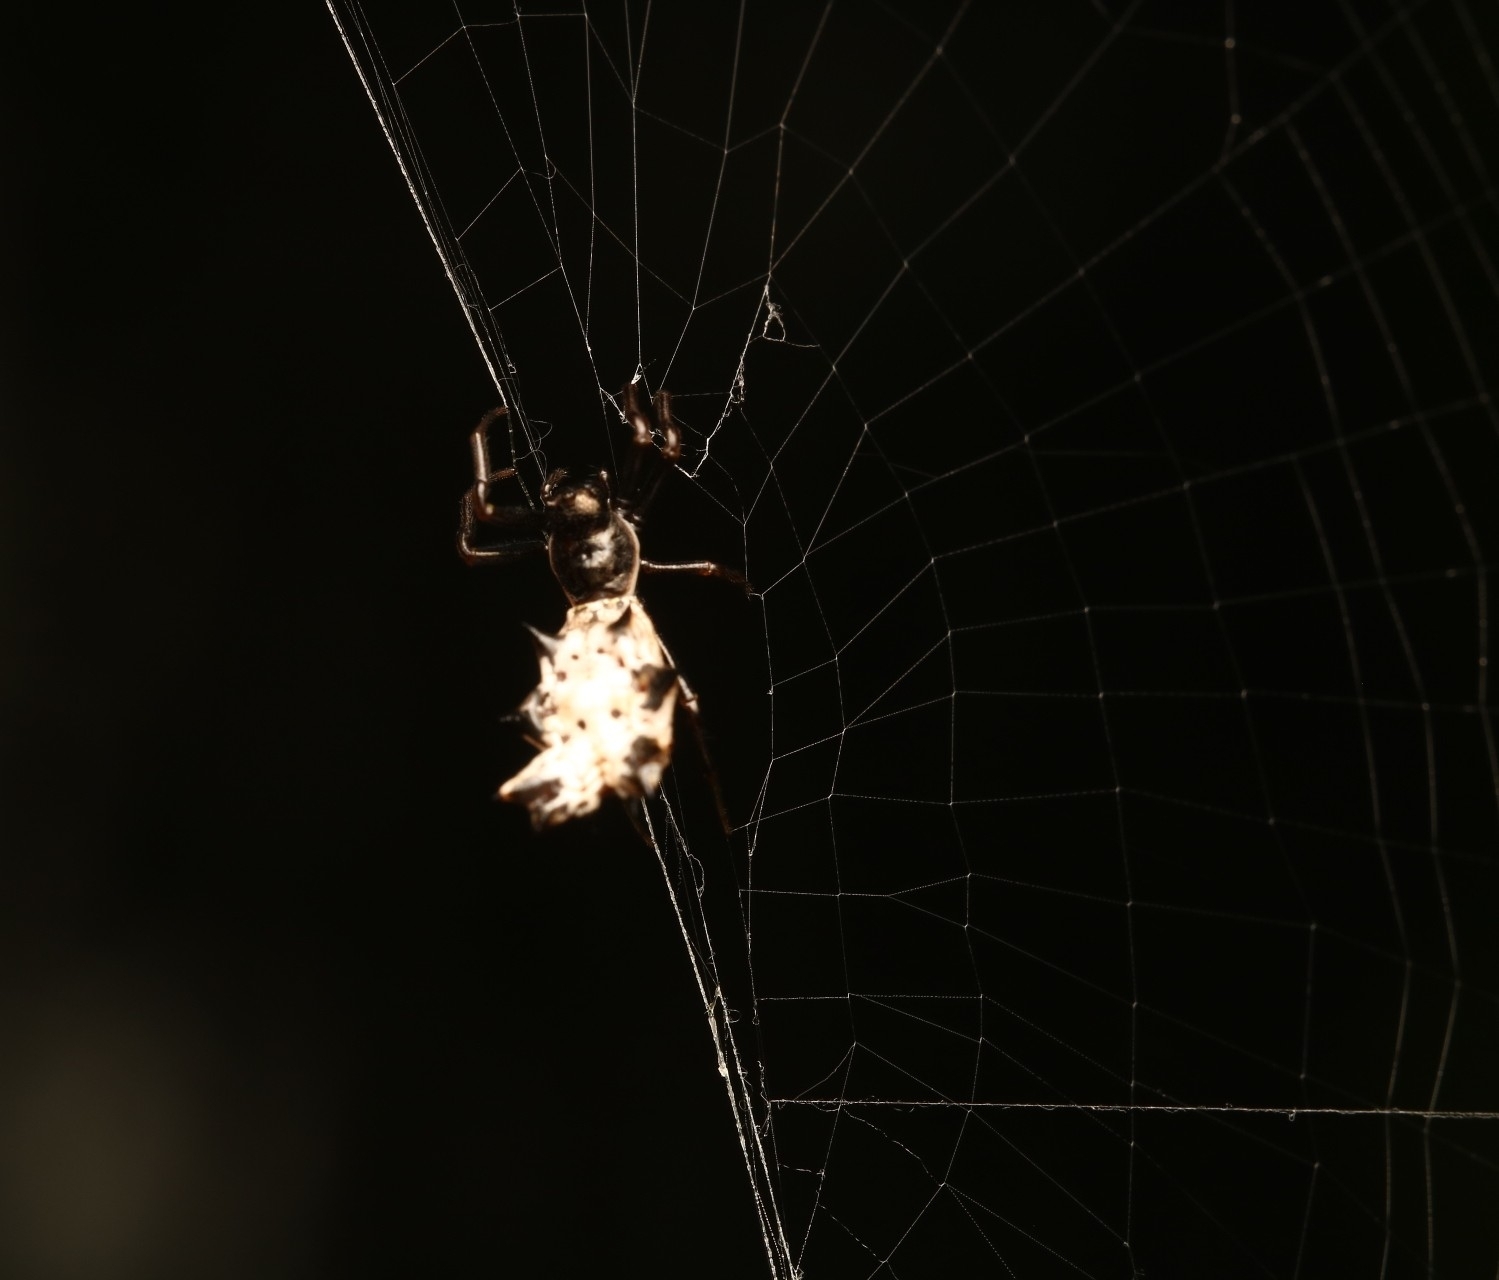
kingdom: Animalia
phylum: Arthropoda
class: Arachnida
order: Araneae
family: Araneidae
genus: Micrathena
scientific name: Micrathena gracilis
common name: Orb weavers
